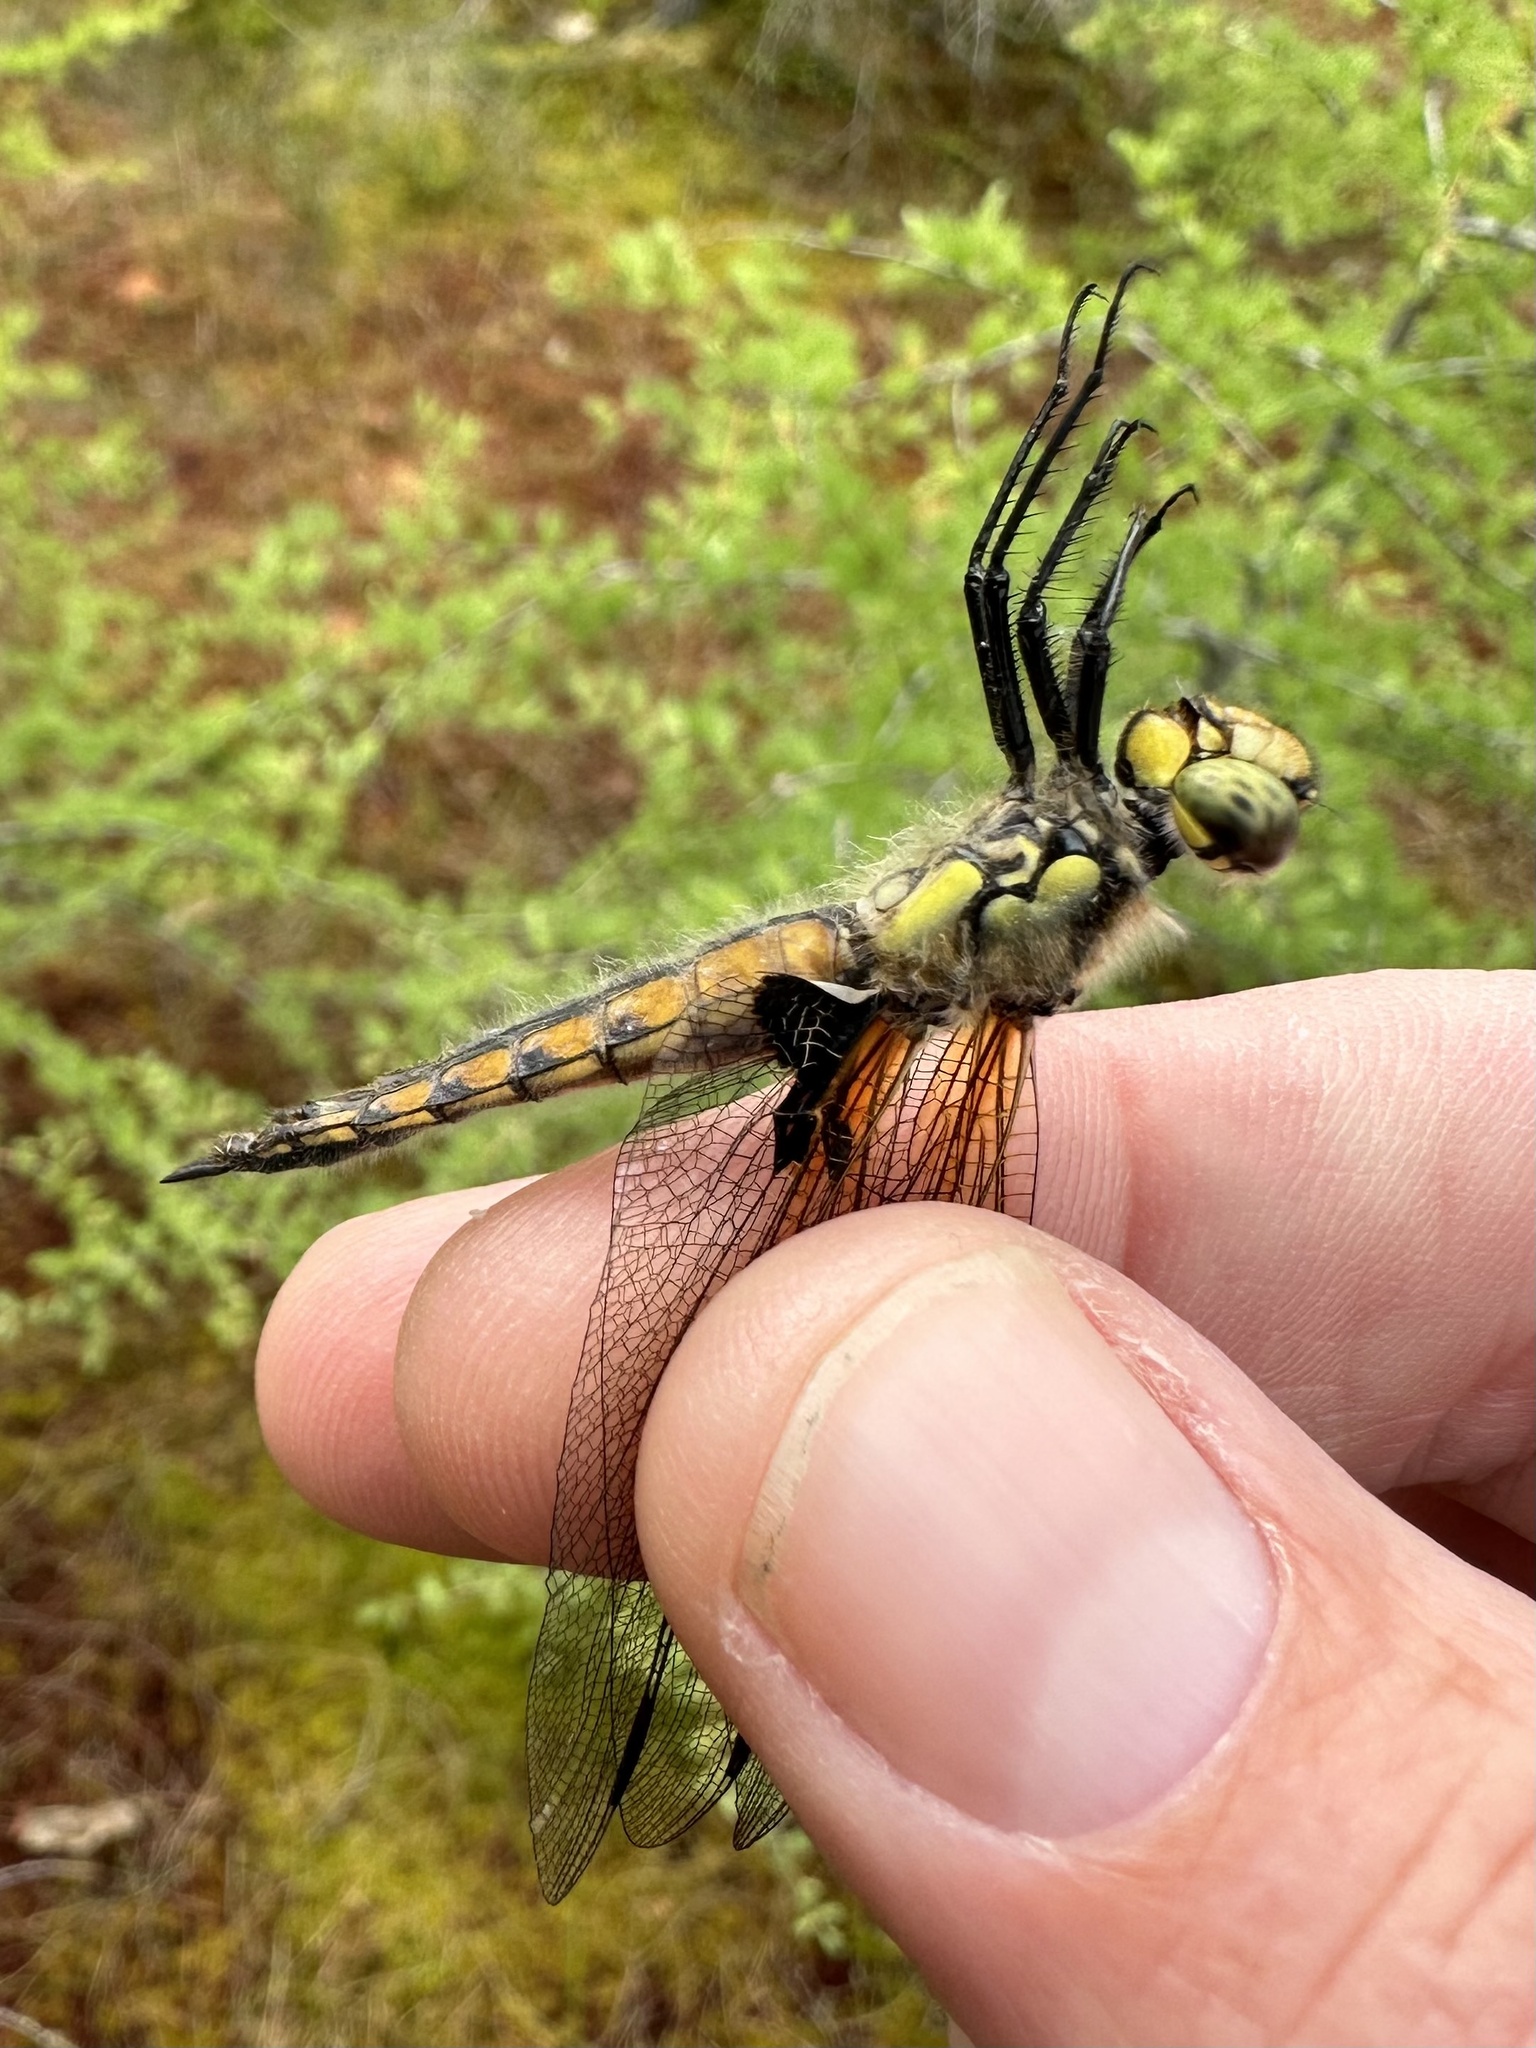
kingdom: Animalia
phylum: Arthropoda
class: Insecta
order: Odonata
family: Libellulidae
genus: Libellula
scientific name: Libellula quadrimaculata
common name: Four-spotted chaser
